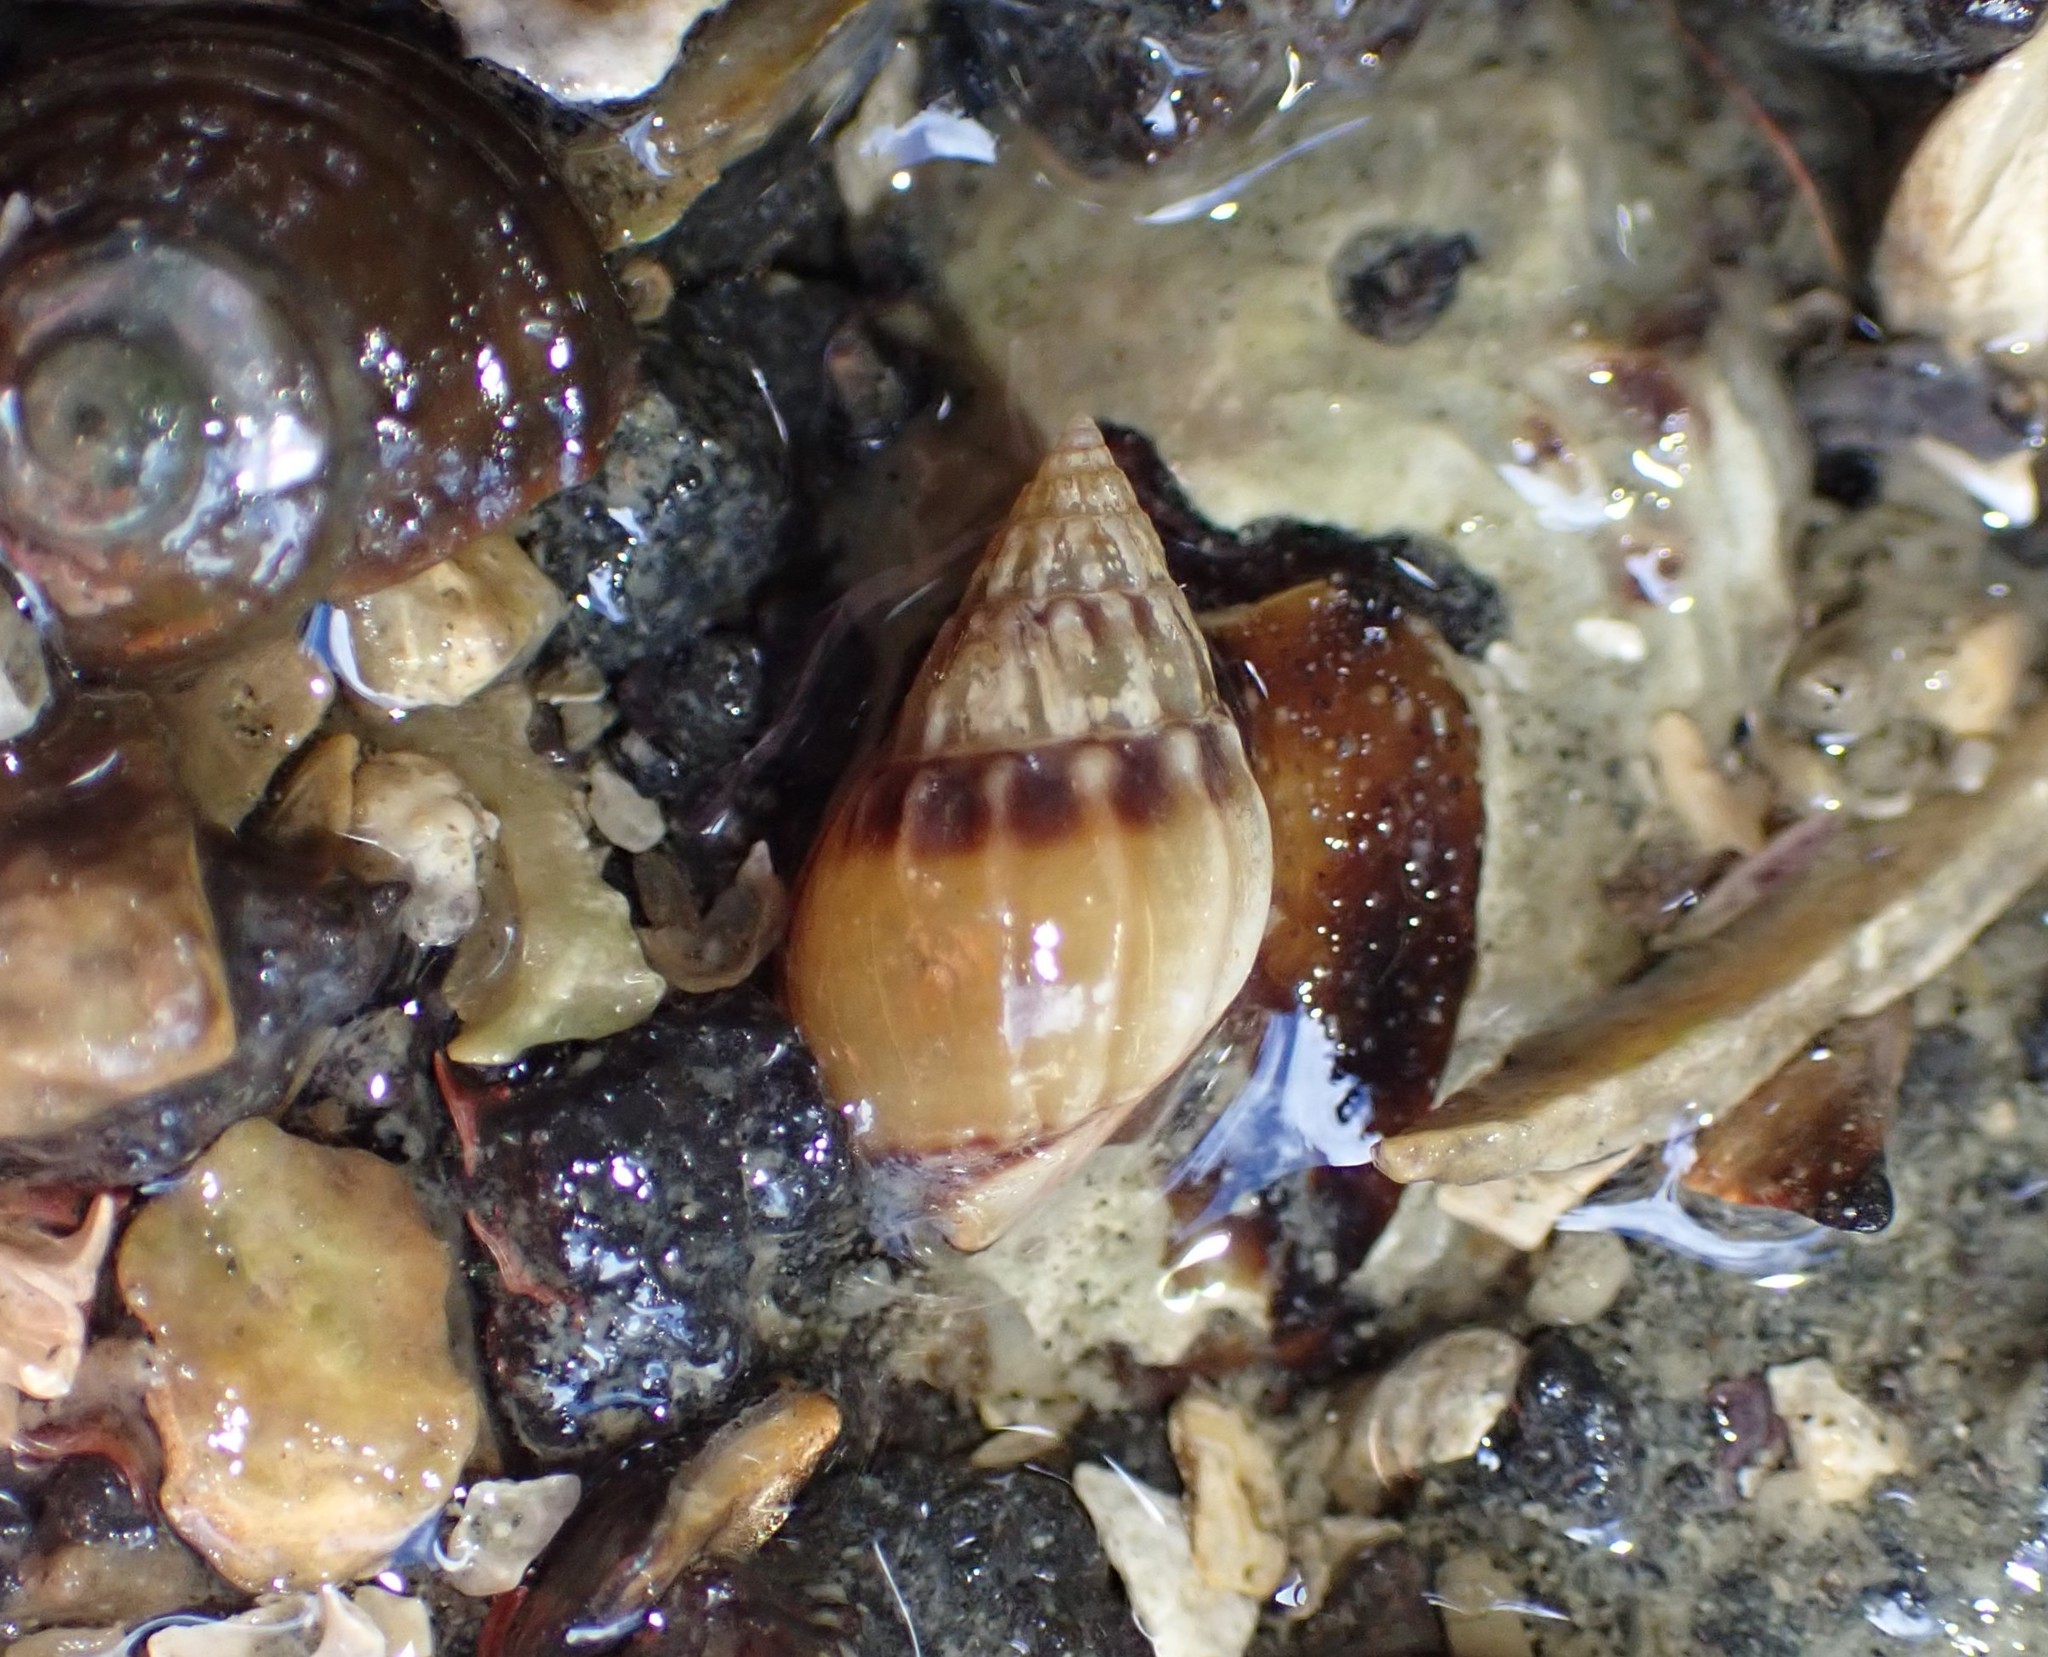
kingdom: Animalia
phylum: Mollusca
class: Gastropoda
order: Neogastropoda
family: Nassariidae
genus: Tritia
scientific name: Tritia burchardi
